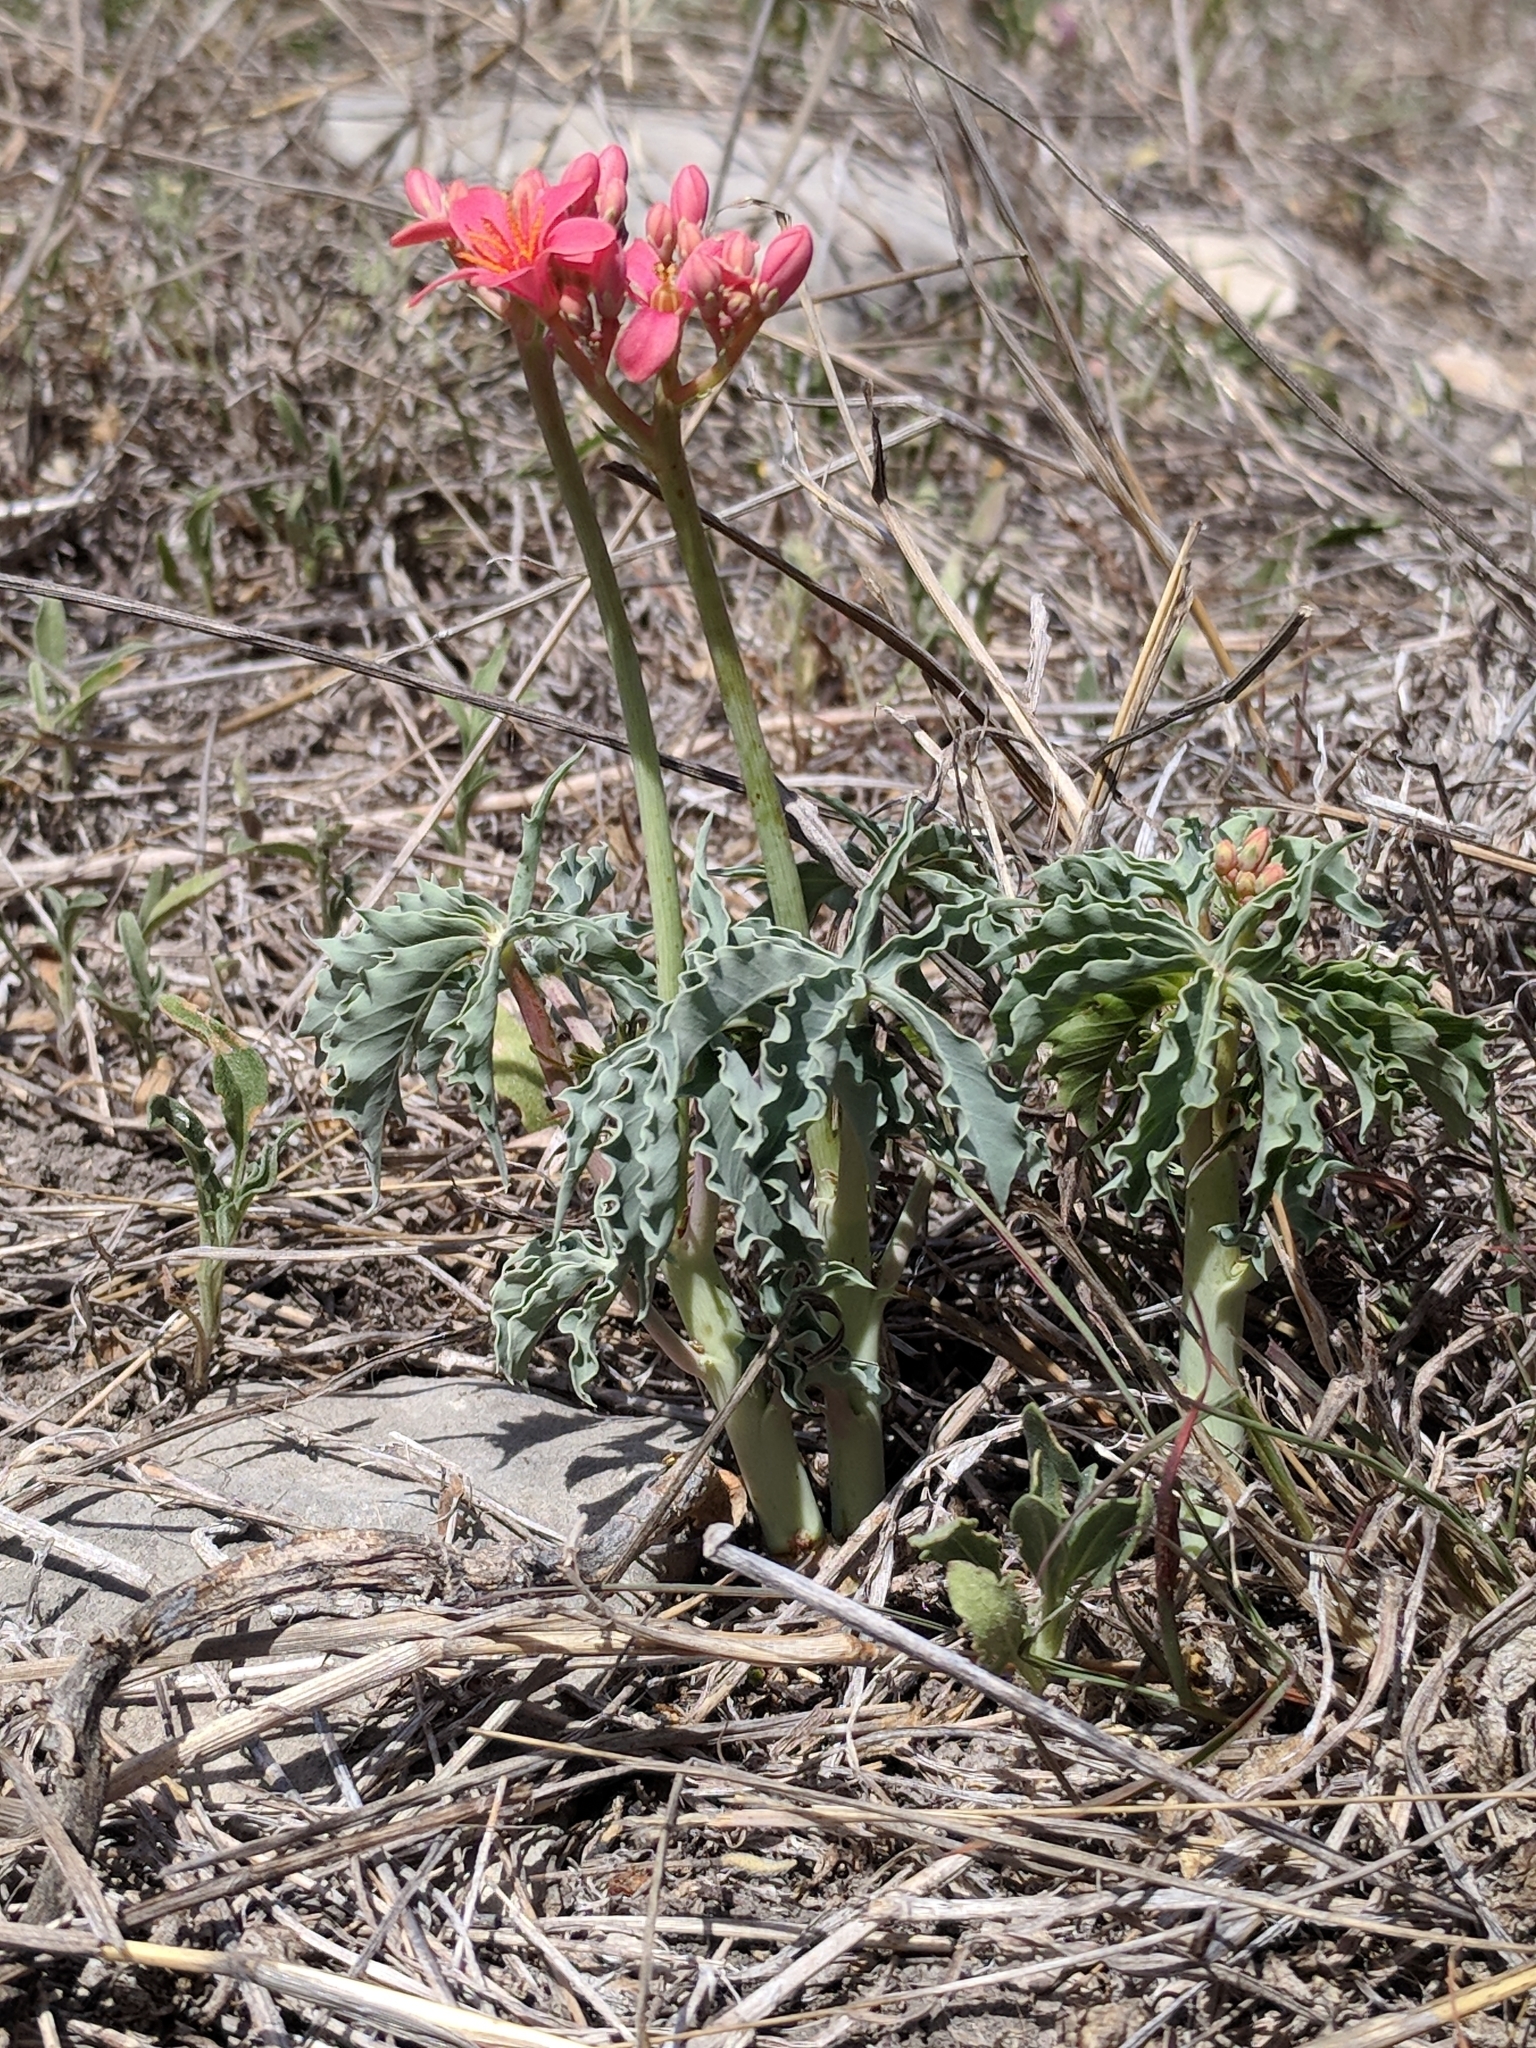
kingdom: Plantae
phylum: Tracheophyta
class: Magnoliopsida
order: Malpighiales
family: Euphorbiaceae
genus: Jatropha
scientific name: Jatropha cathartica
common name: Berlander's nettlespurge
